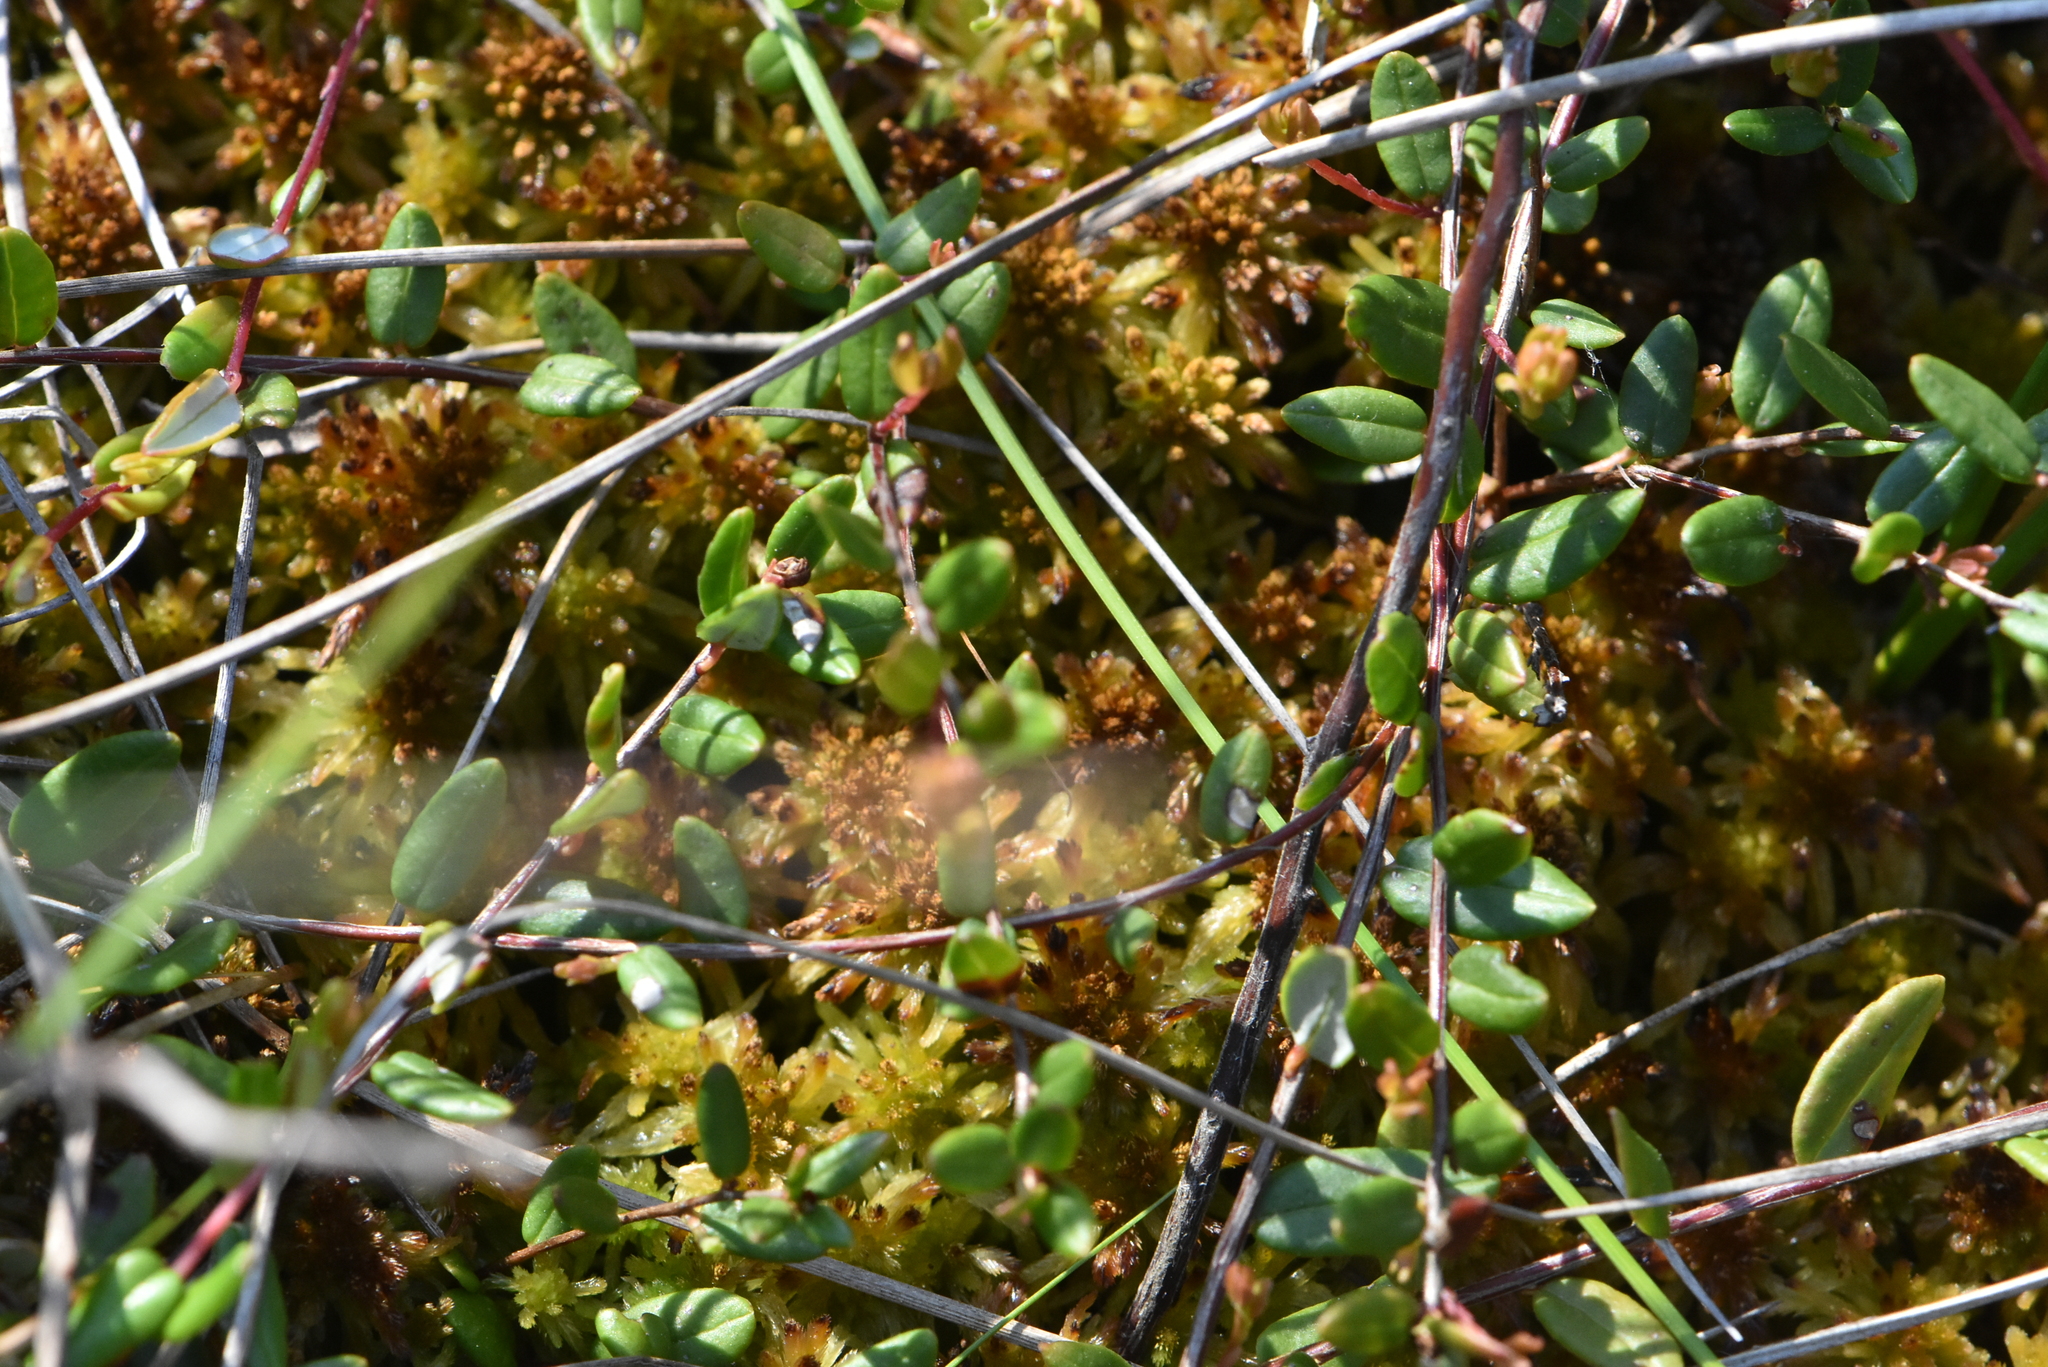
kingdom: Plantae
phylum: Tracheophyta
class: Magnoliopsida
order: Ericales
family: Ericaceae
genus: Vaccinium
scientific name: Vaccinium oxycoccos
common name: Cranberry
